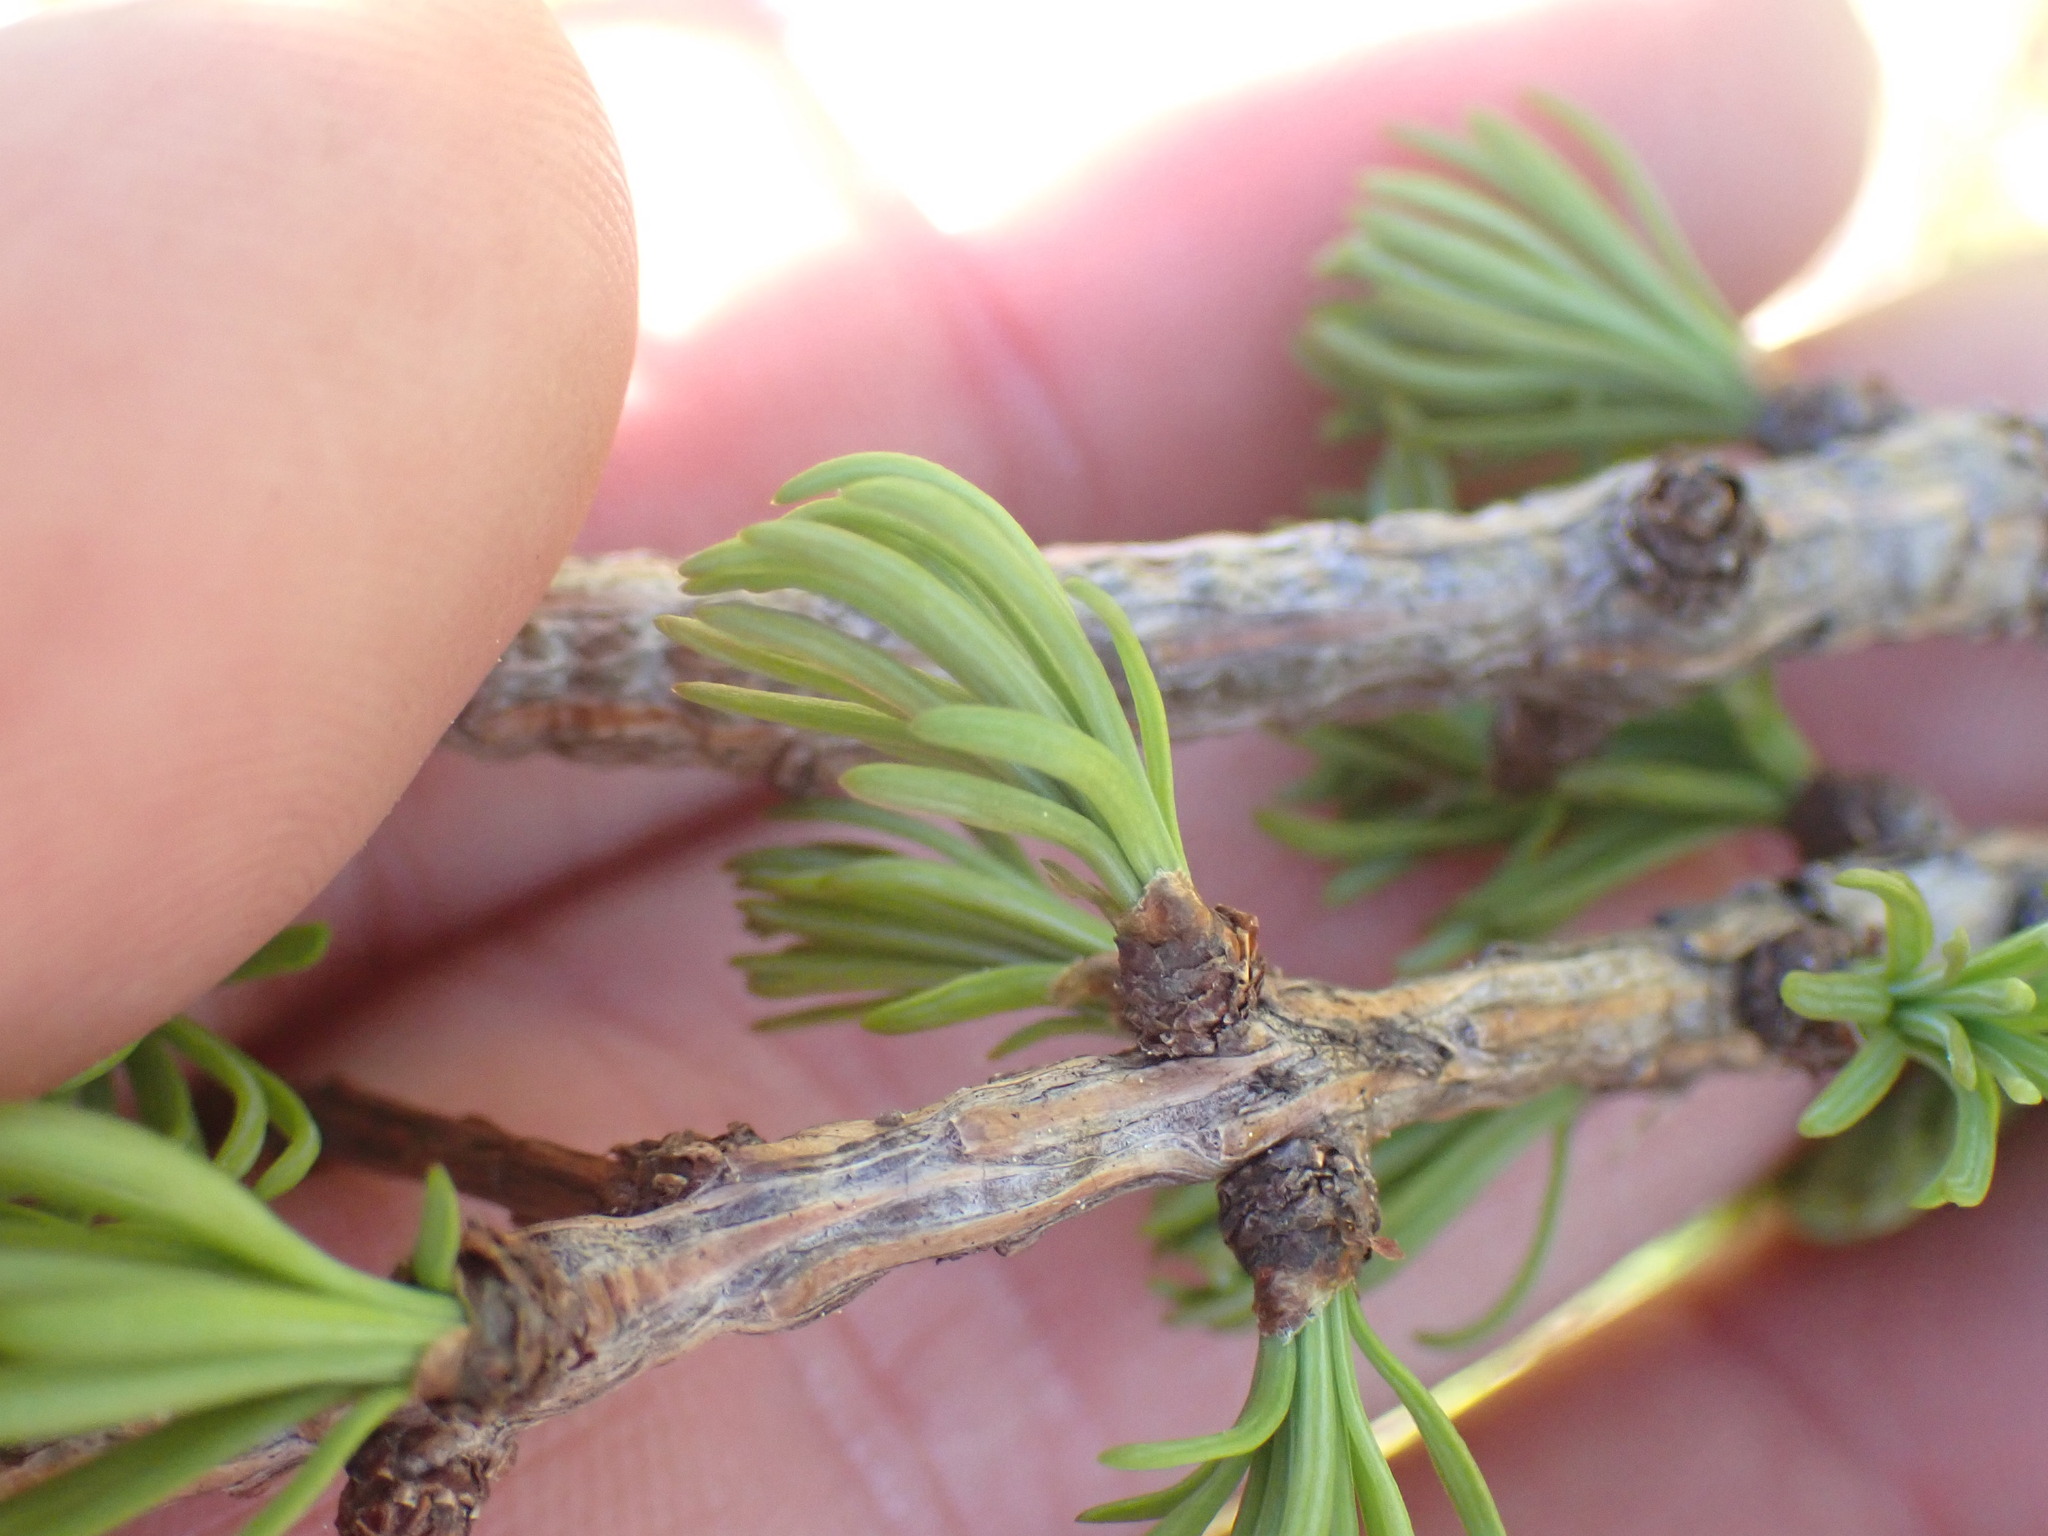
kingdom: Plantae
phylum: Tracheophyta
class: Pinopsida
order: Pinales
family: Pinaceae
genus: Larix
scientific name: Larix lyallii
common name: Alpine larch
